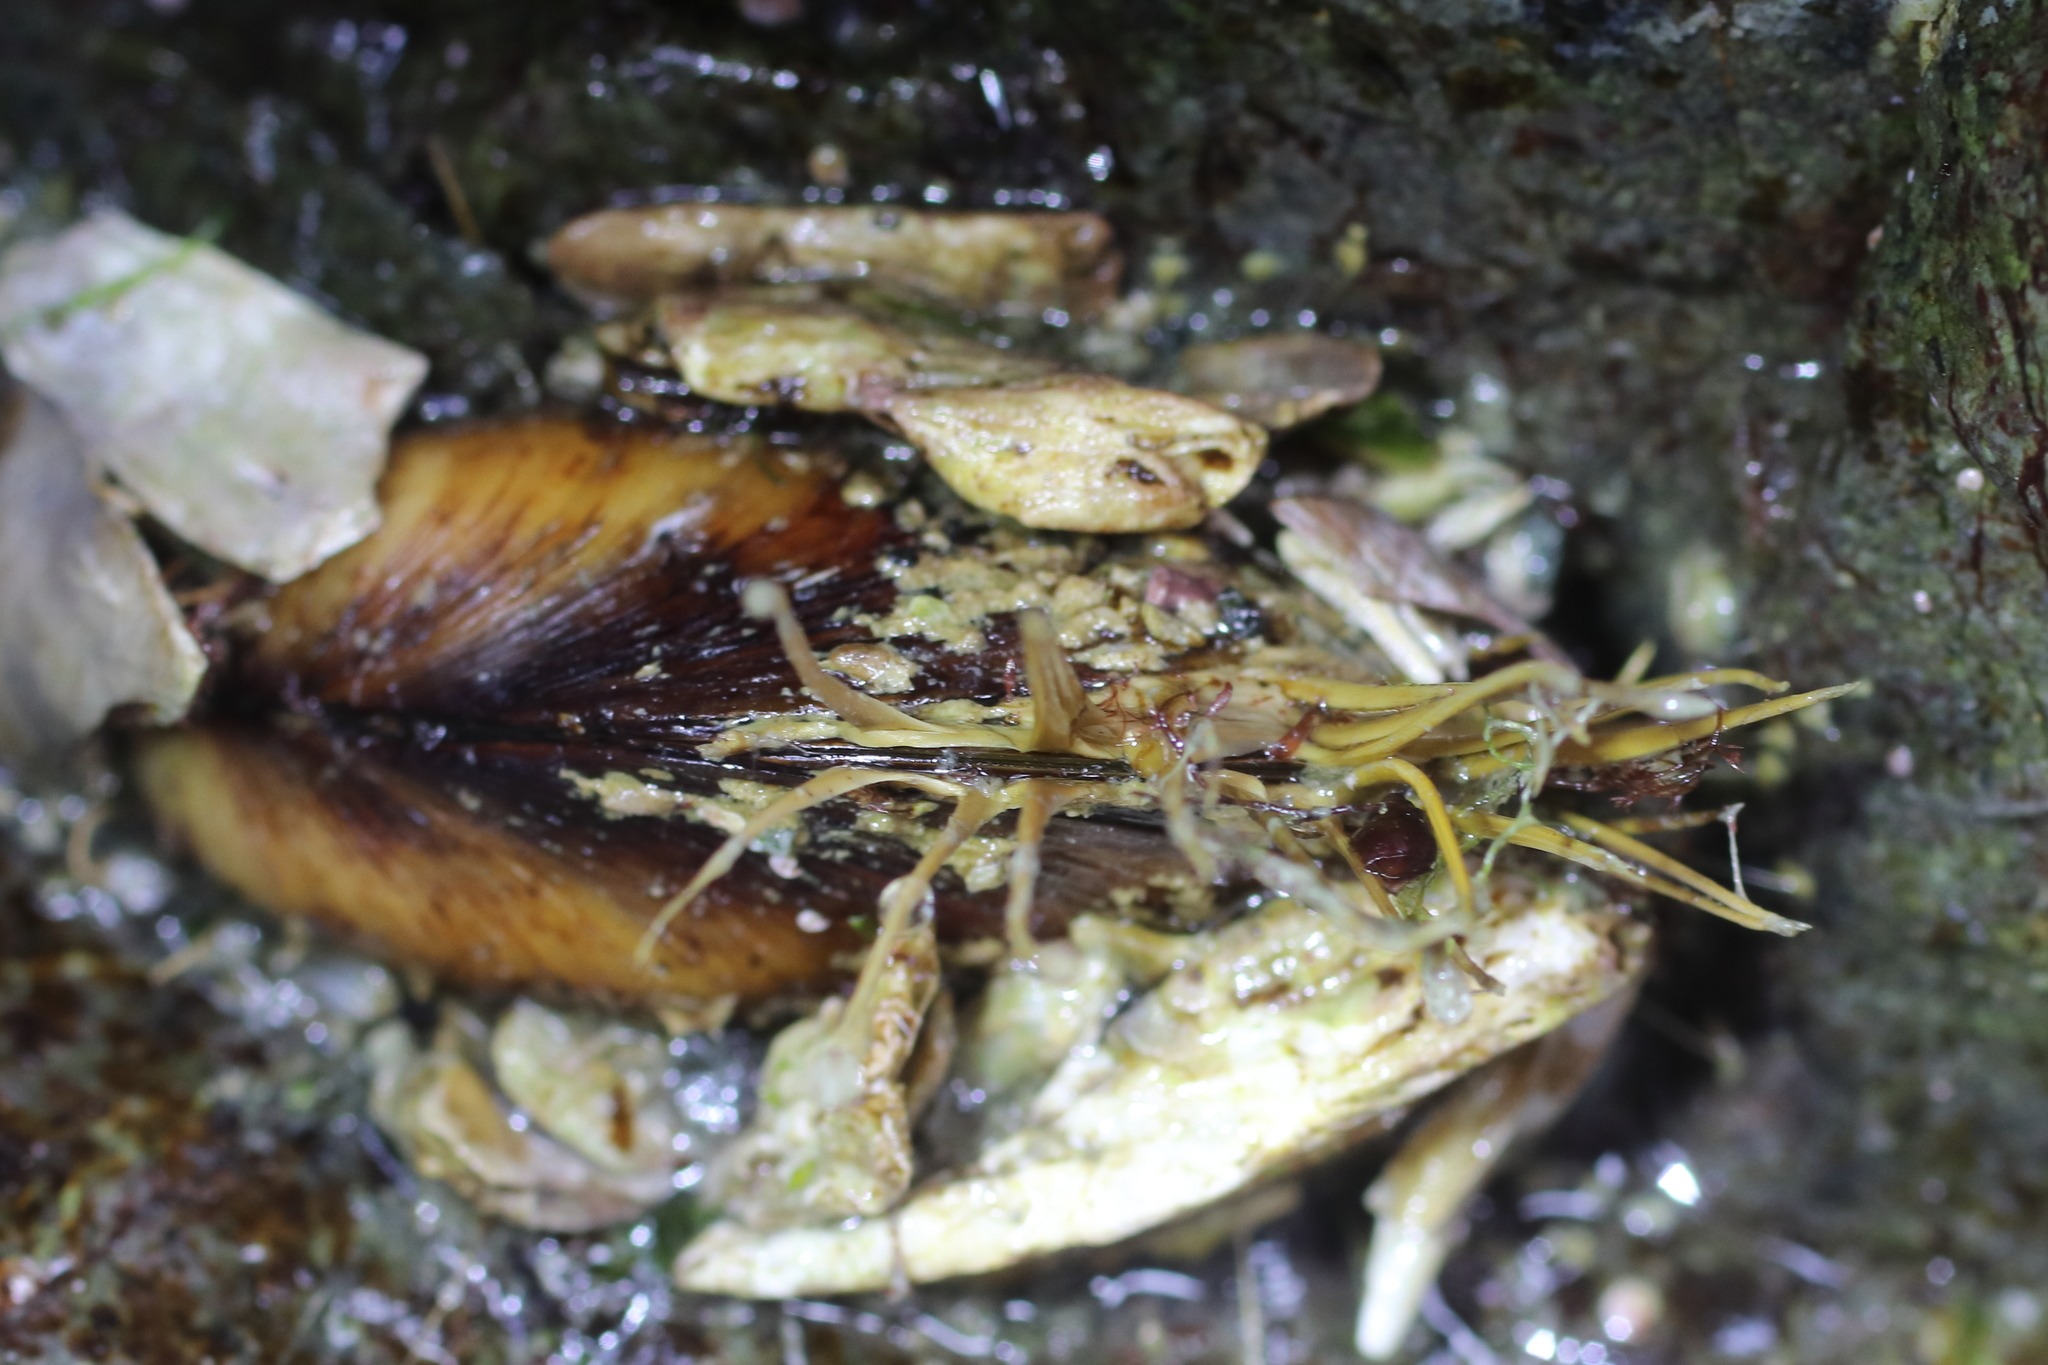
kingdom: Animalia
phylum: Mollusca
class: Bivalvia
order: Mytilida
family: Mytilidae
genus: Modiolus
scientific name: Modiolus modiolus
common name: Horse-mussel
